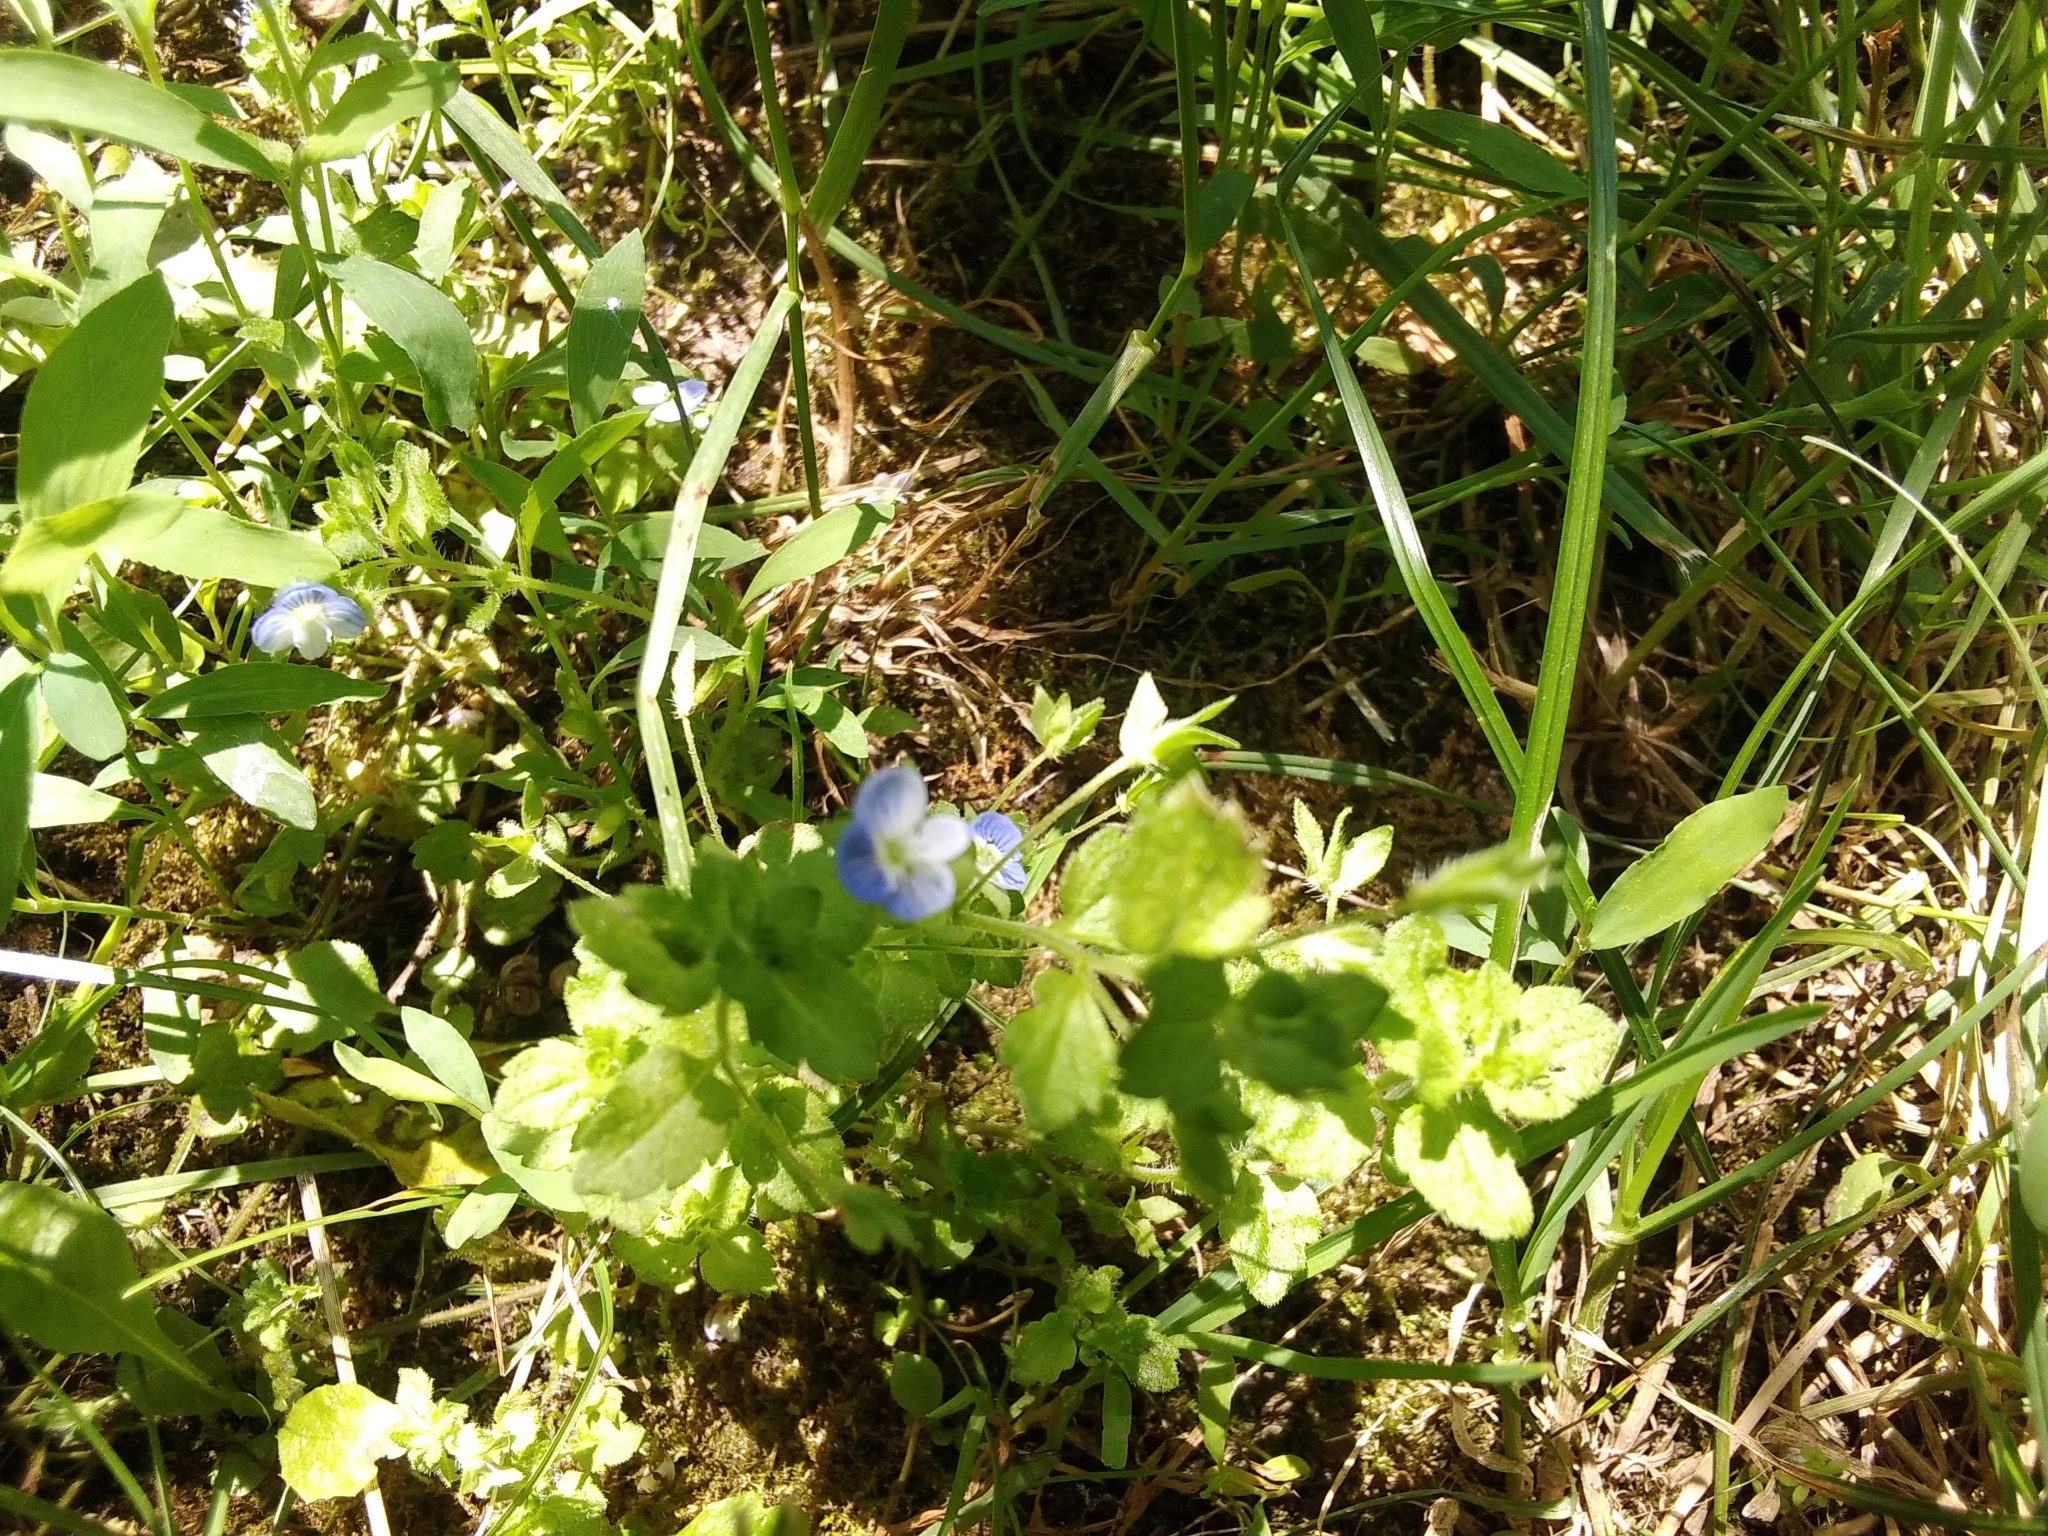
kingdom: Plantae
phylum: Tracheophyta
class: Magnoliopsida
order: Lamiales
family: Plantaginaceae
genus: Veronica
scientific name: Veronica persica
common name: Common field-speedwell
